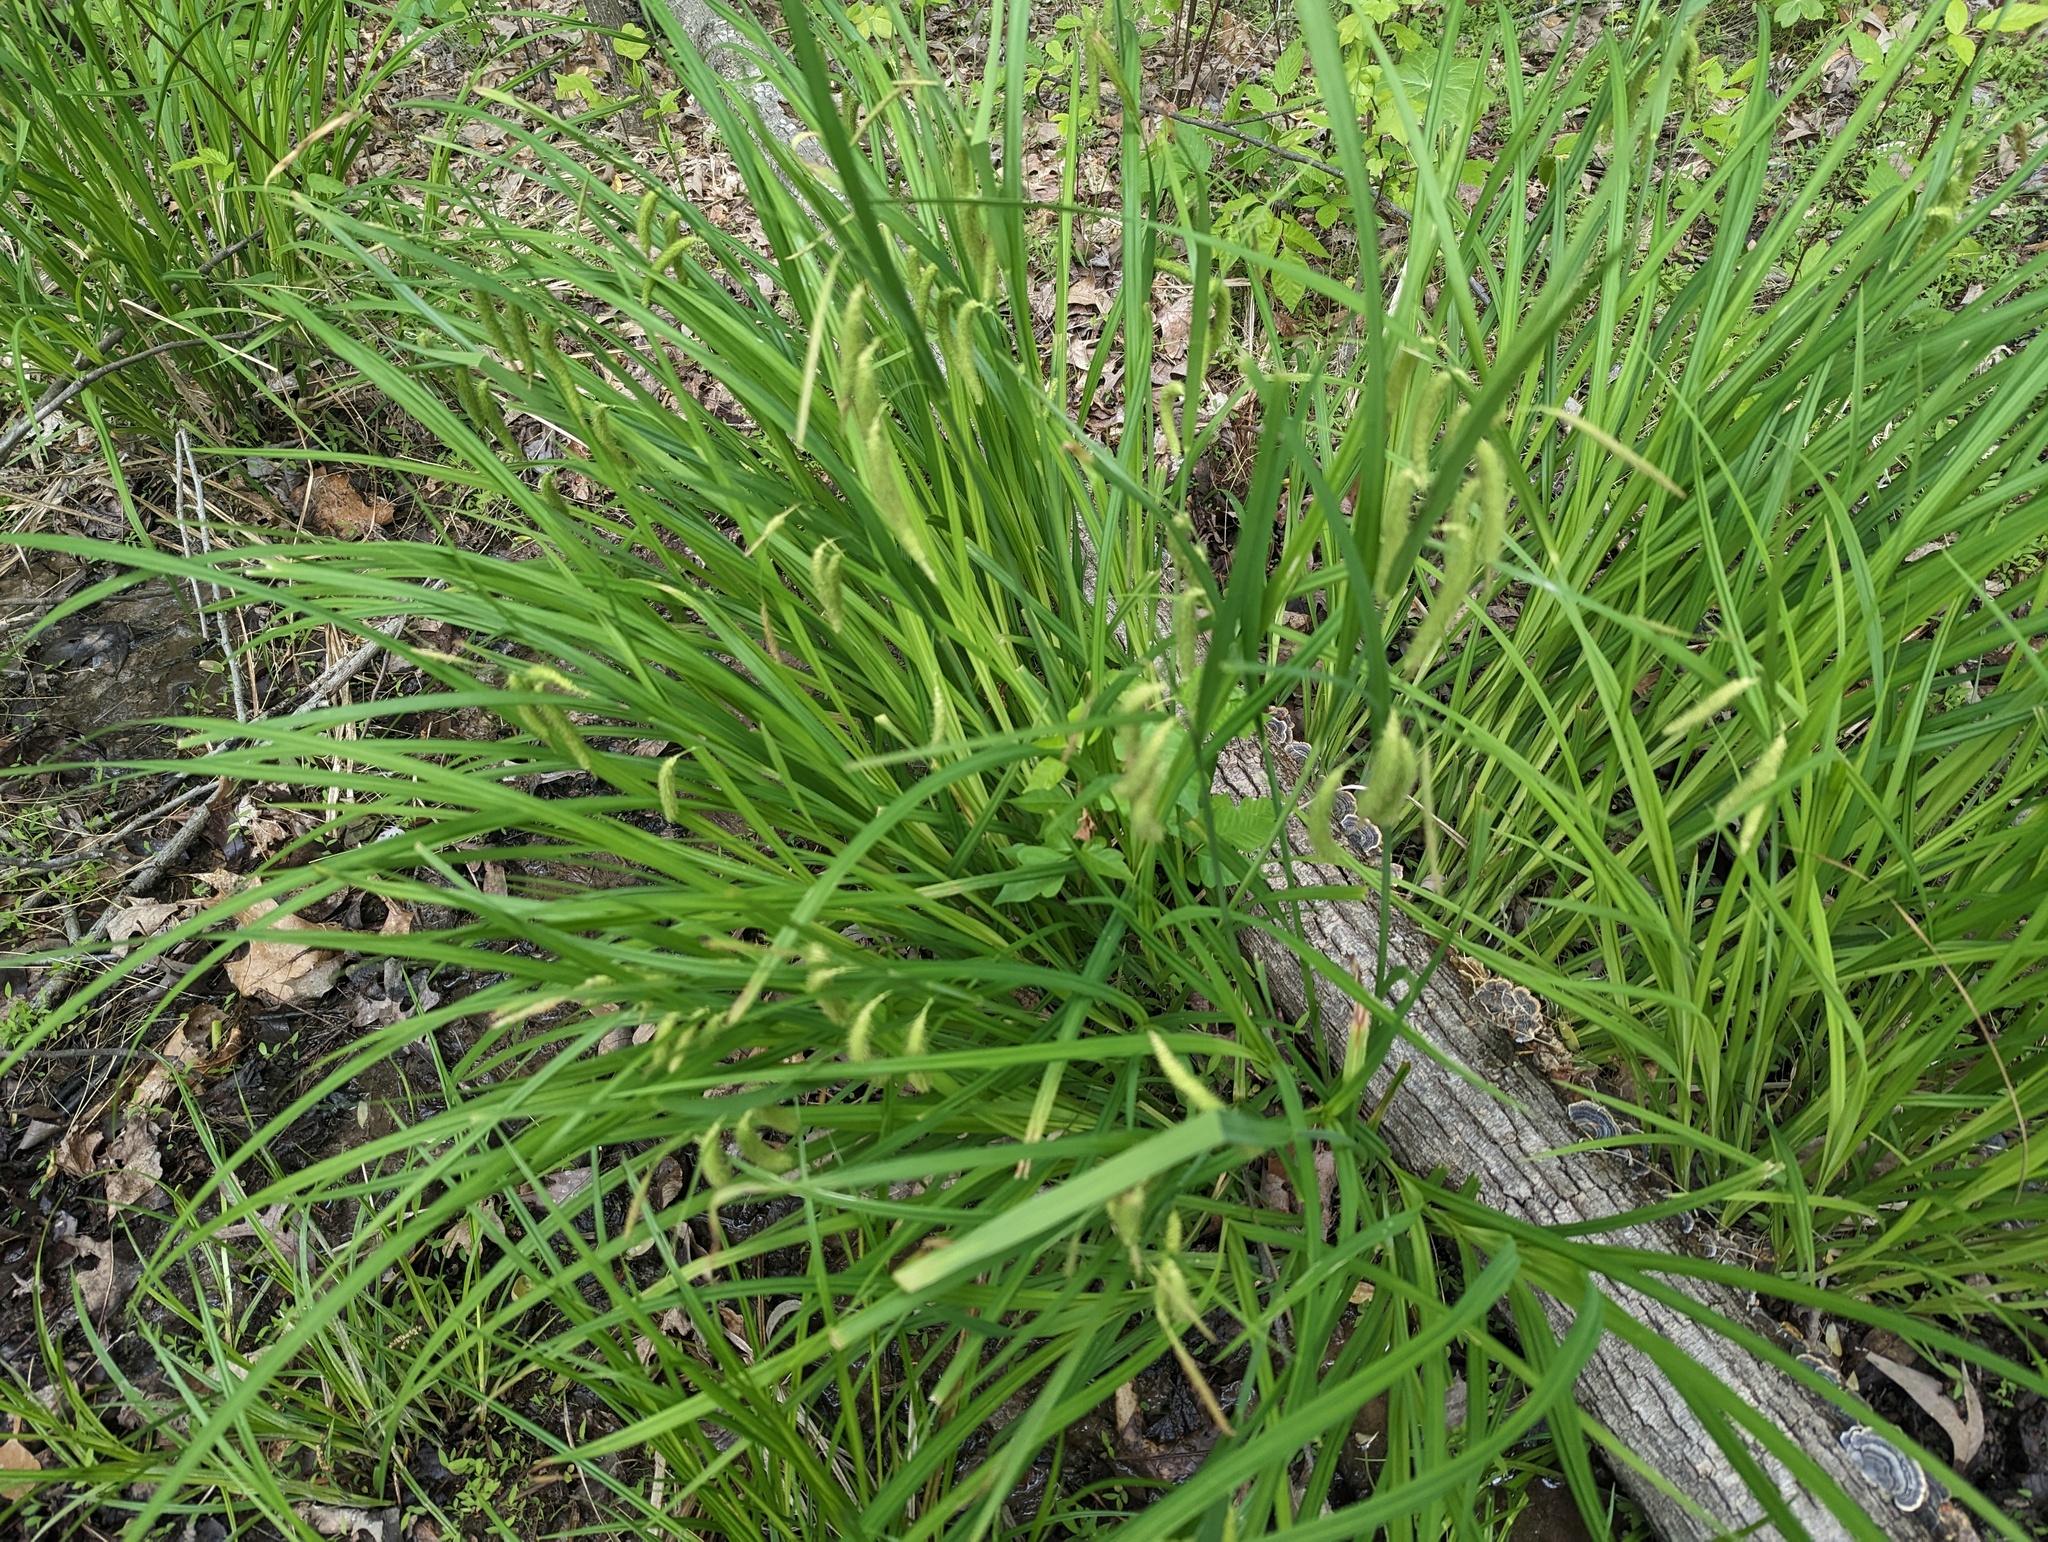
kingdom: Plantae
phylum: Tracheophyta
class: Liliopsida
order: Poales
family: Cyperaceae
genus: Carex
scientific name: Carex crinita
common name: Fringed sedge
